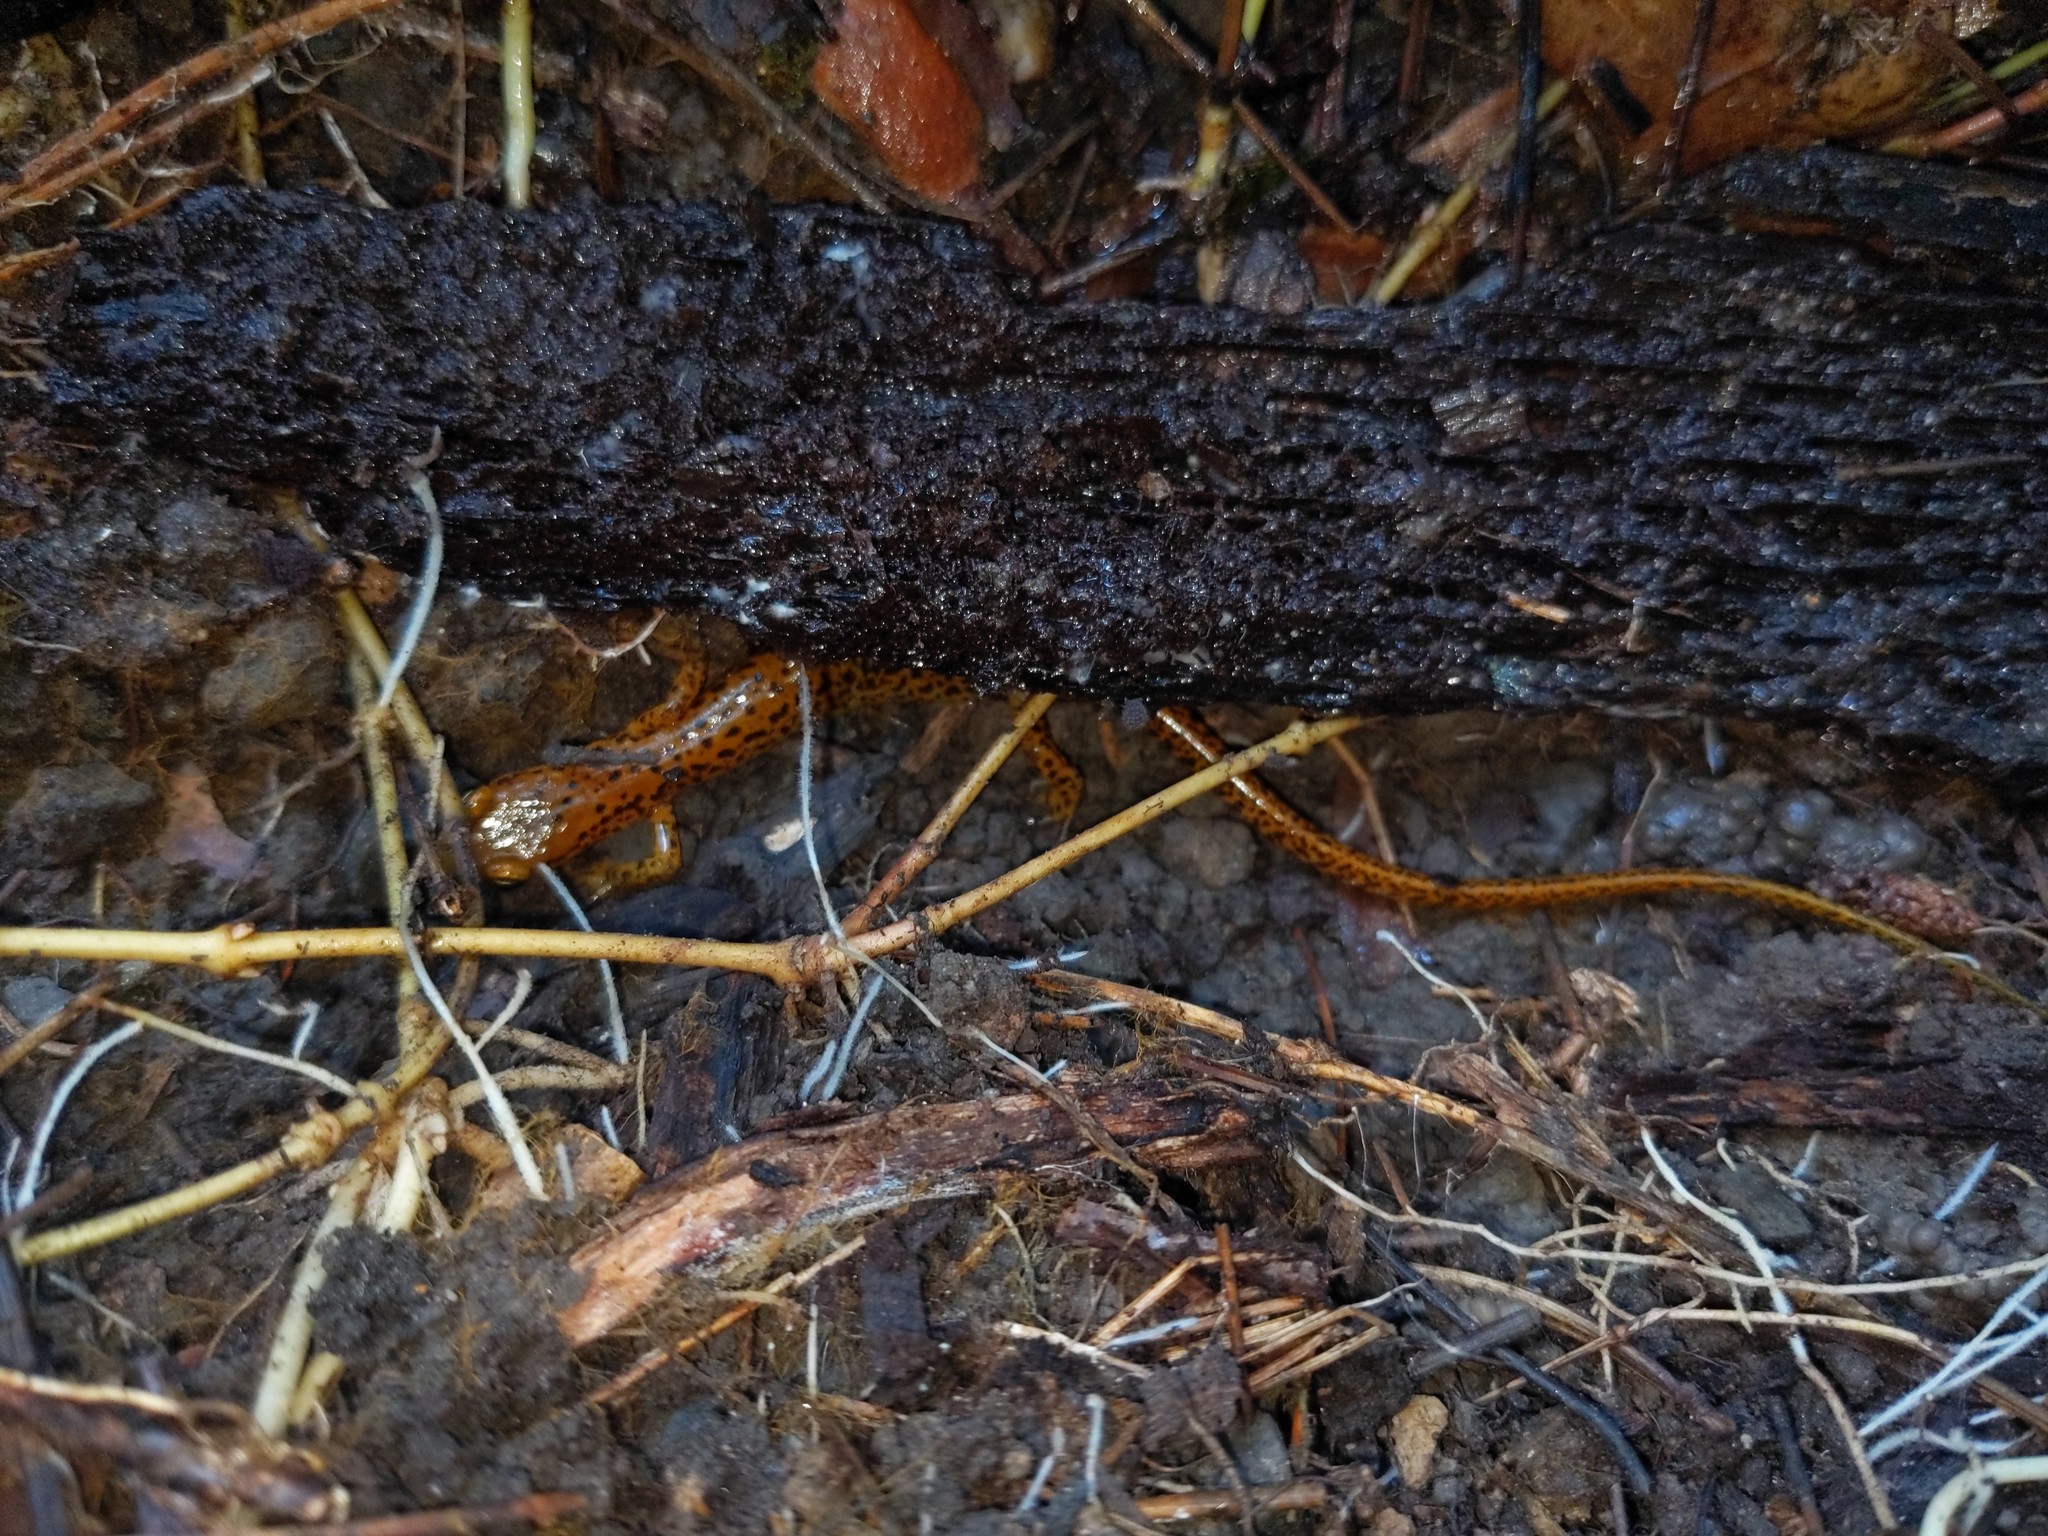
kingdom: Animalia
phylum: Chordata
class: Amphibia
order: Caudata
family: Plethodontidae
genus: Eurycea
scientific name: Eurycea longicauda
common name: Long-tailed salamander
